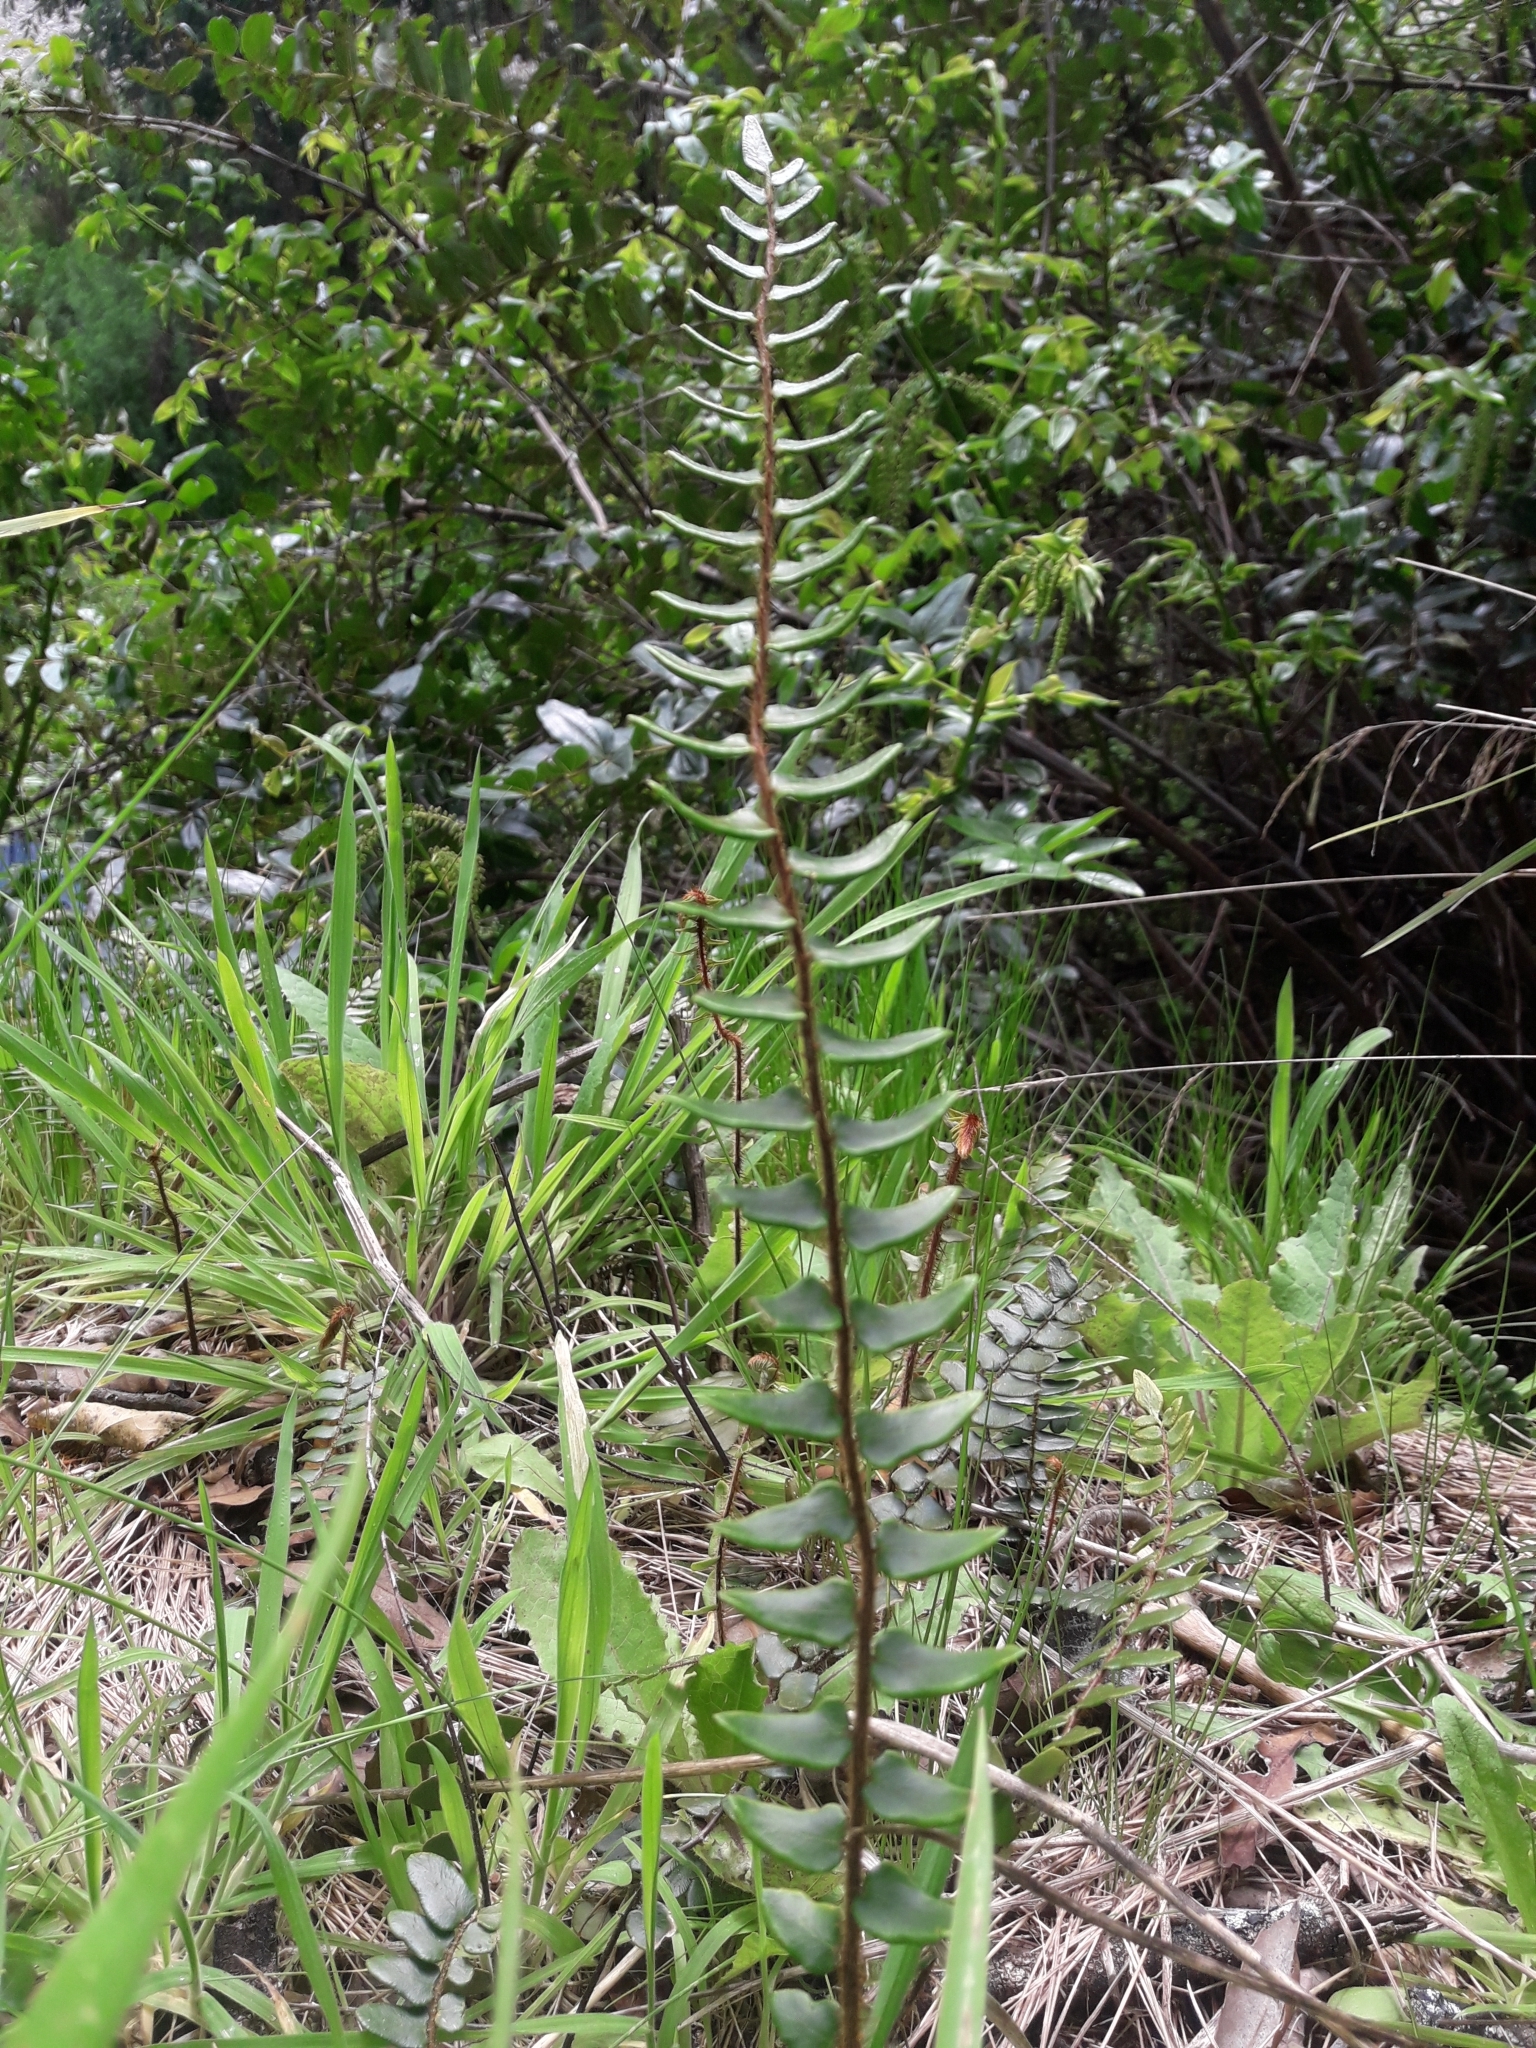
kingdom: Plantae
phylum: Tracheophyta
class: Polypodiopsida
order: Polypodiales
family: Pteridaceae
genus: Pellaea
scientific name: Pellaea rotundifolia
